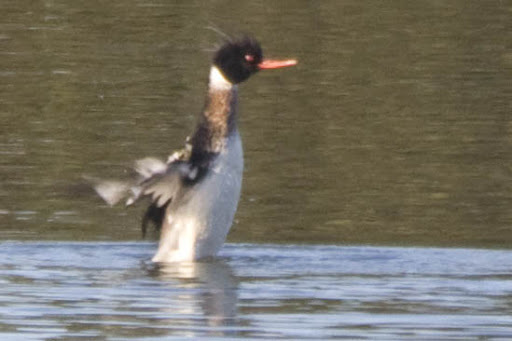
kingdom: Animalia
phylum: Chordata
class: Aves
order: Anseriformes
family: Anatidae
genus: Mergus
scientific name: Mergus serrator
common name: Red-breasted merganser
